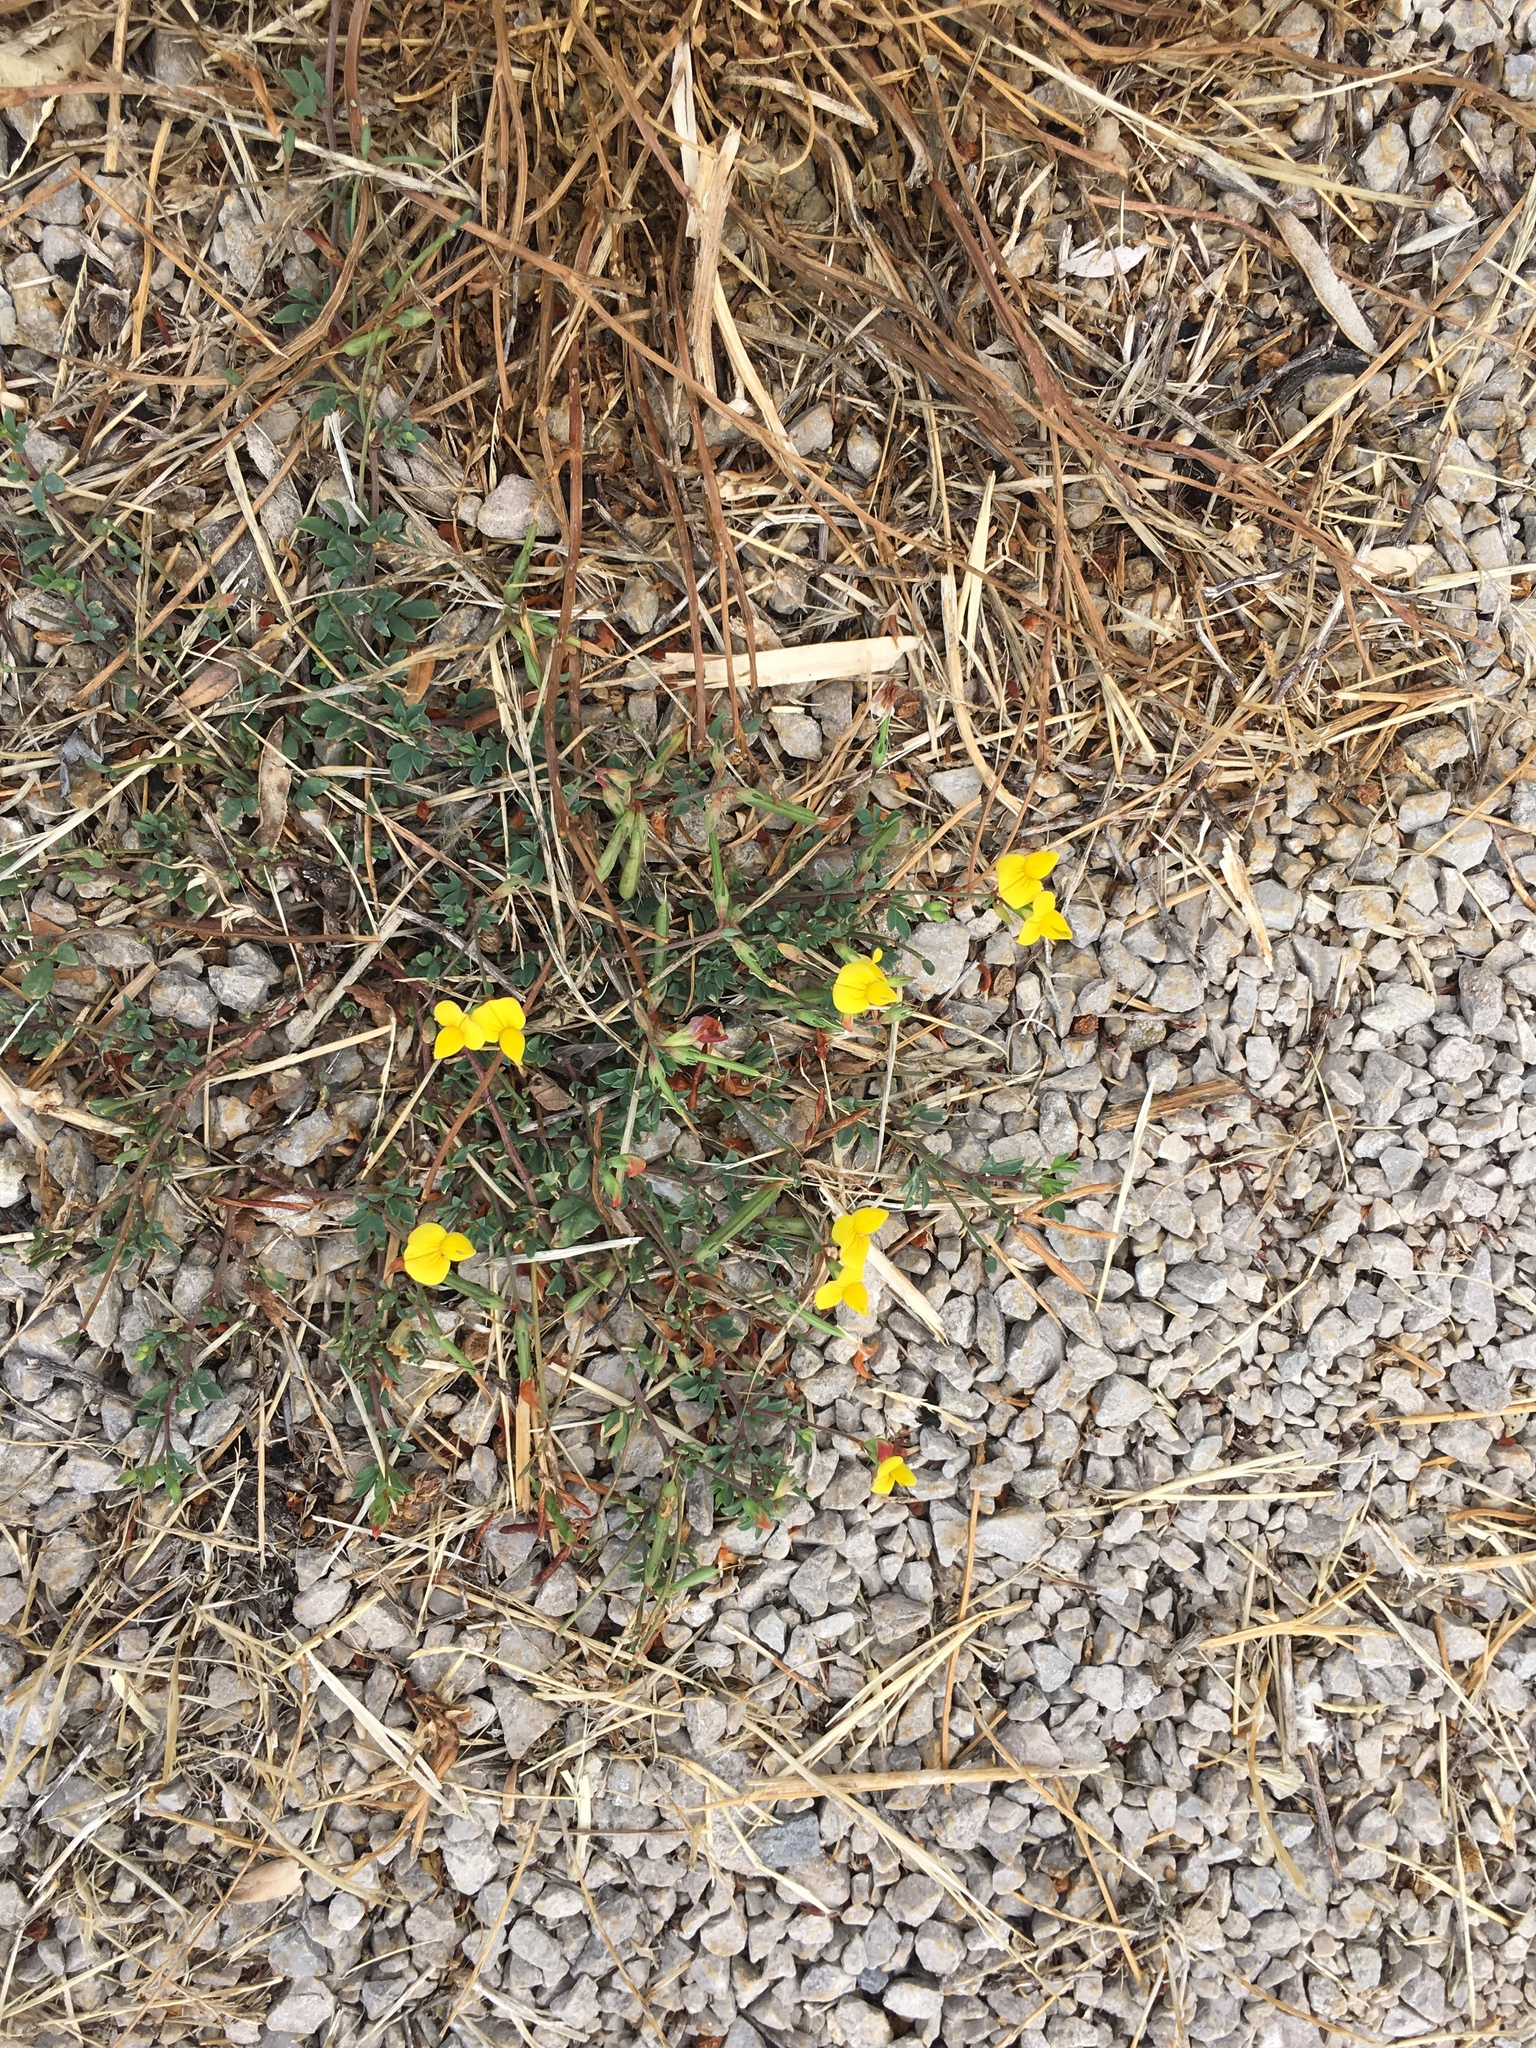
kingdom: Plantae
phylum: Tracheophyta
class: Magnoliopsida
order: Fabales
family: Fabaceae
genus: Lotus
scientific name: Lotus corniculatus
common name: Common bird's-foot-trefoil
